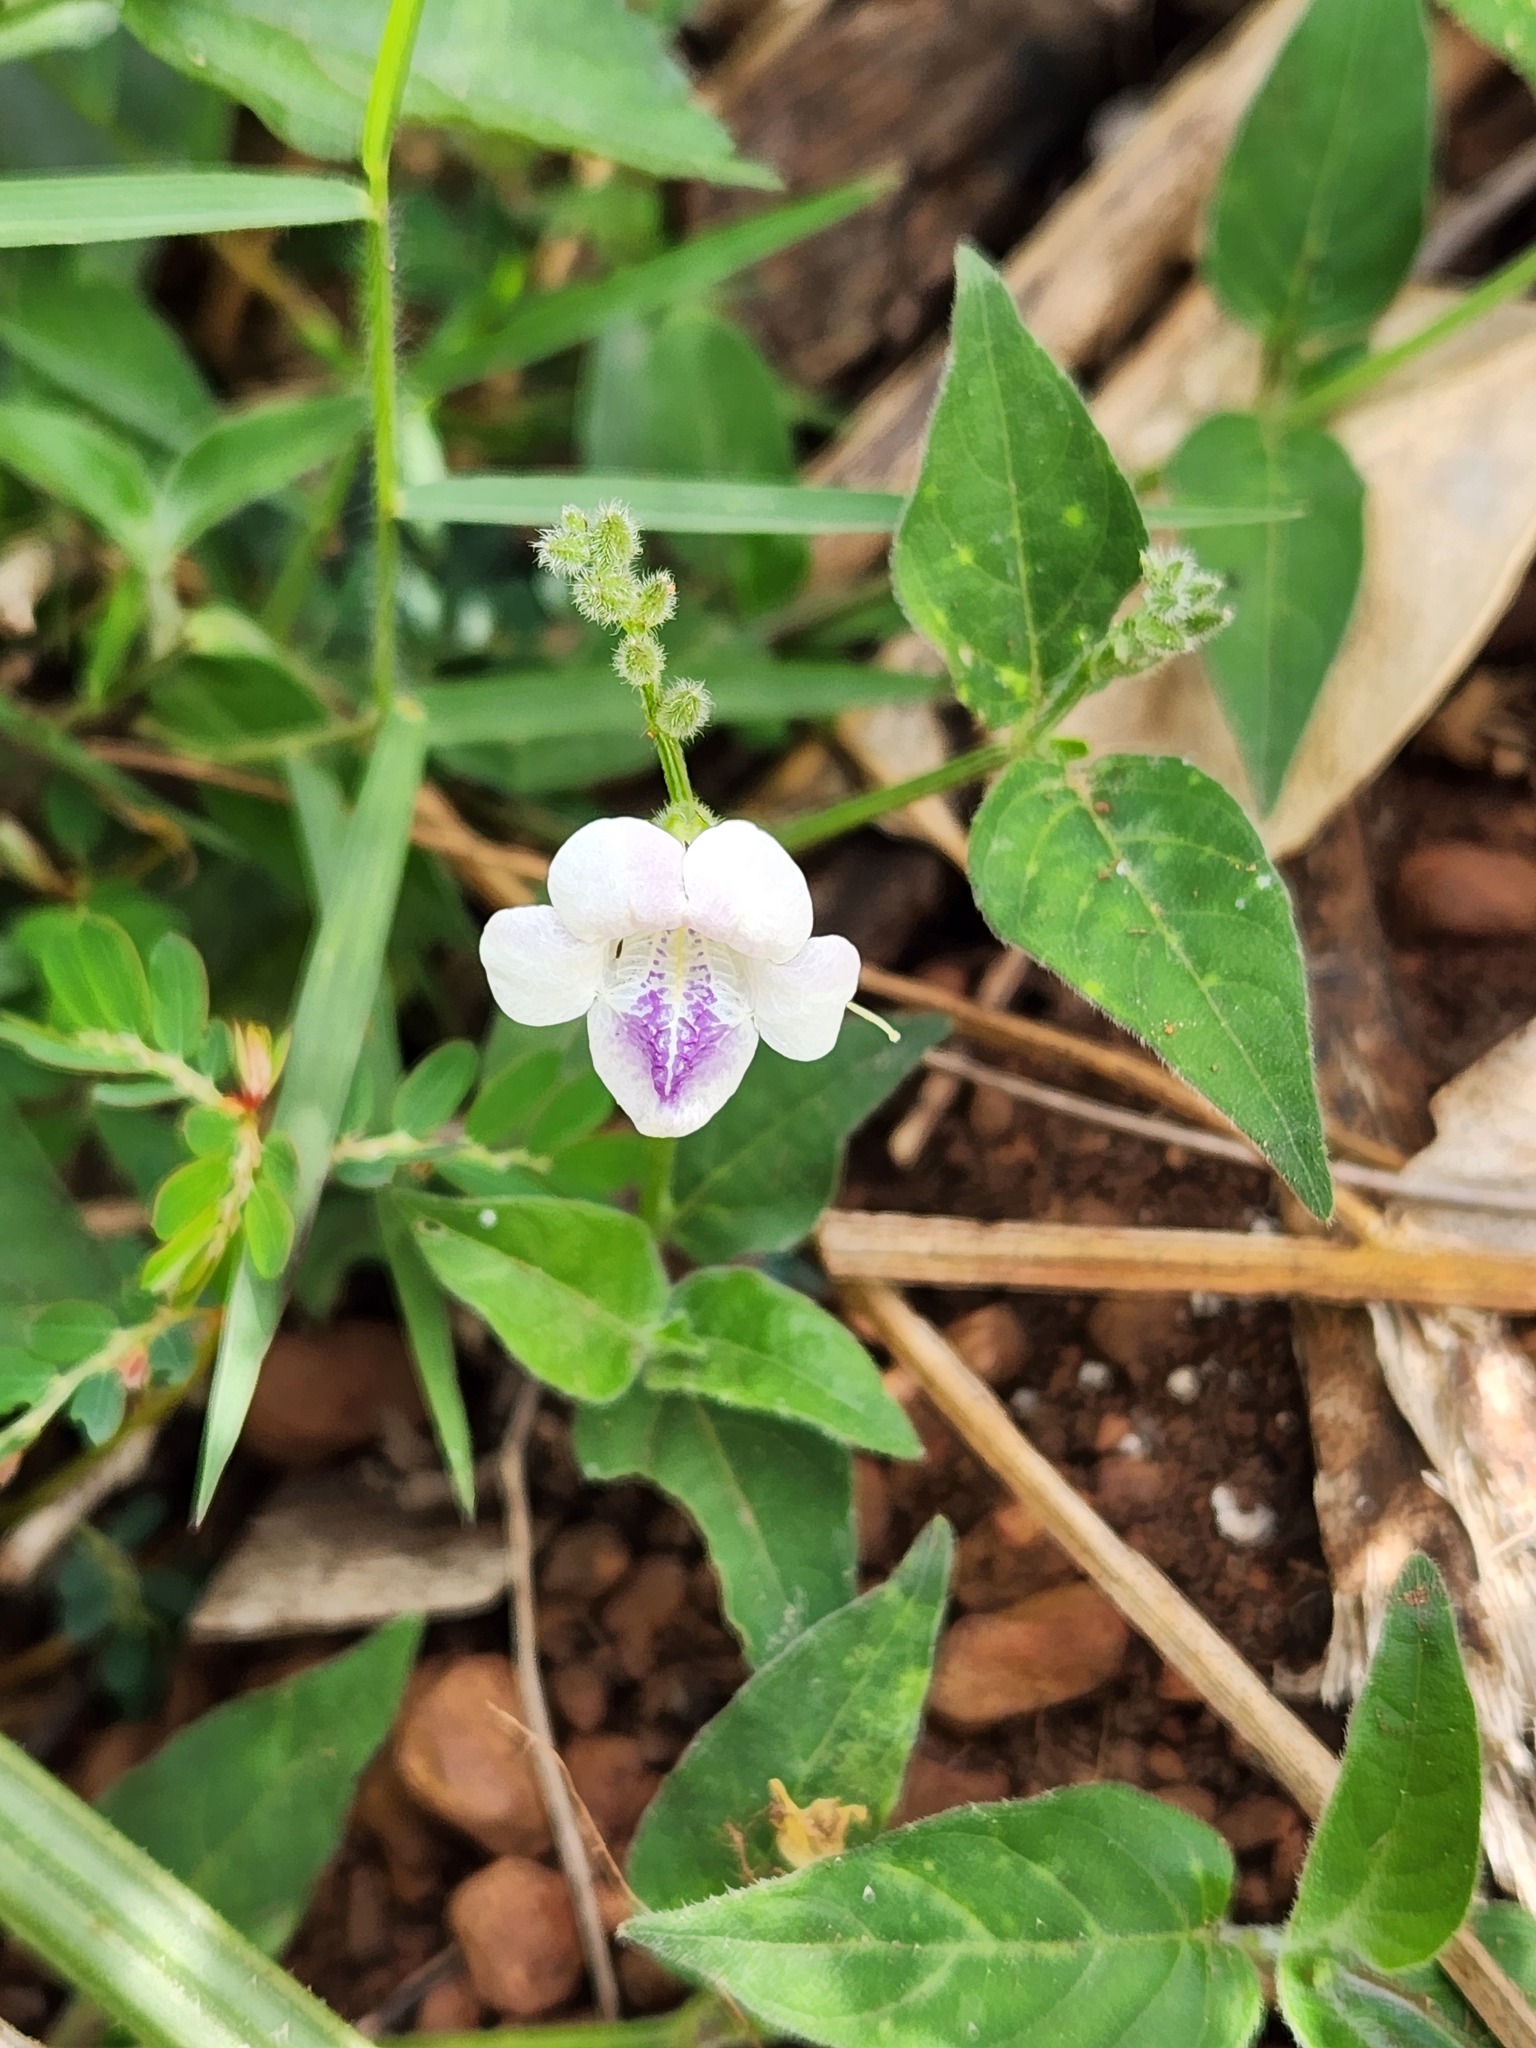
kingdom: Plantae
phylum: Tracheophyta
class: Magnoliopsida
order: Lamiales
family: Acanthaceae
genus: Asystasia
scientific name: Asystasia intrusa
